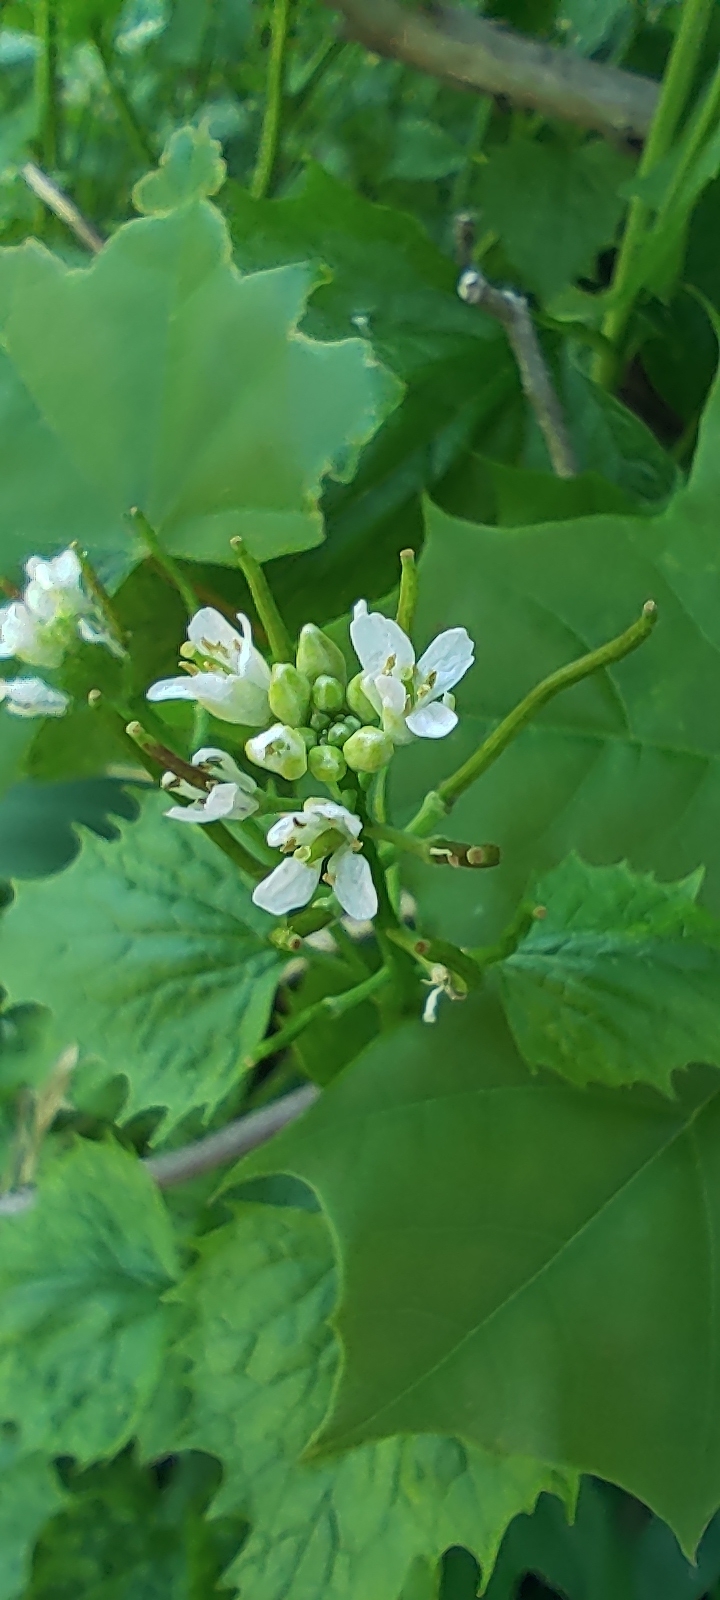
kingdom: Plantae
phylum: Tracheophyta
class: Magnoliopsida
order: Brassicales
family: Brassicaceae
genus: Alliaria
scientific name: Alliaria petiolata
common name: Garlic mustard
